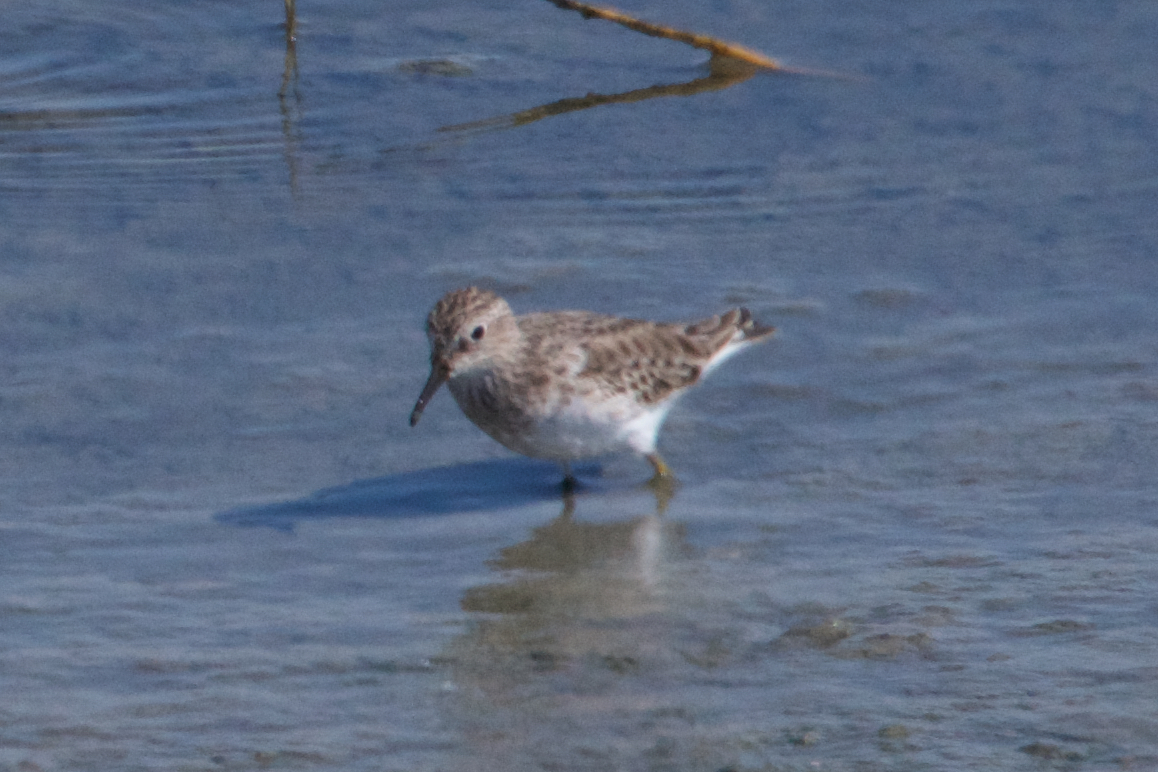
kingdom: Animalia
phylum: Chordata
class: Aves
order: Charadriiformes
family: Scolopacidae
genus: Calidris
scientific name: Calidris minutilla
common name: Least sandpiper
